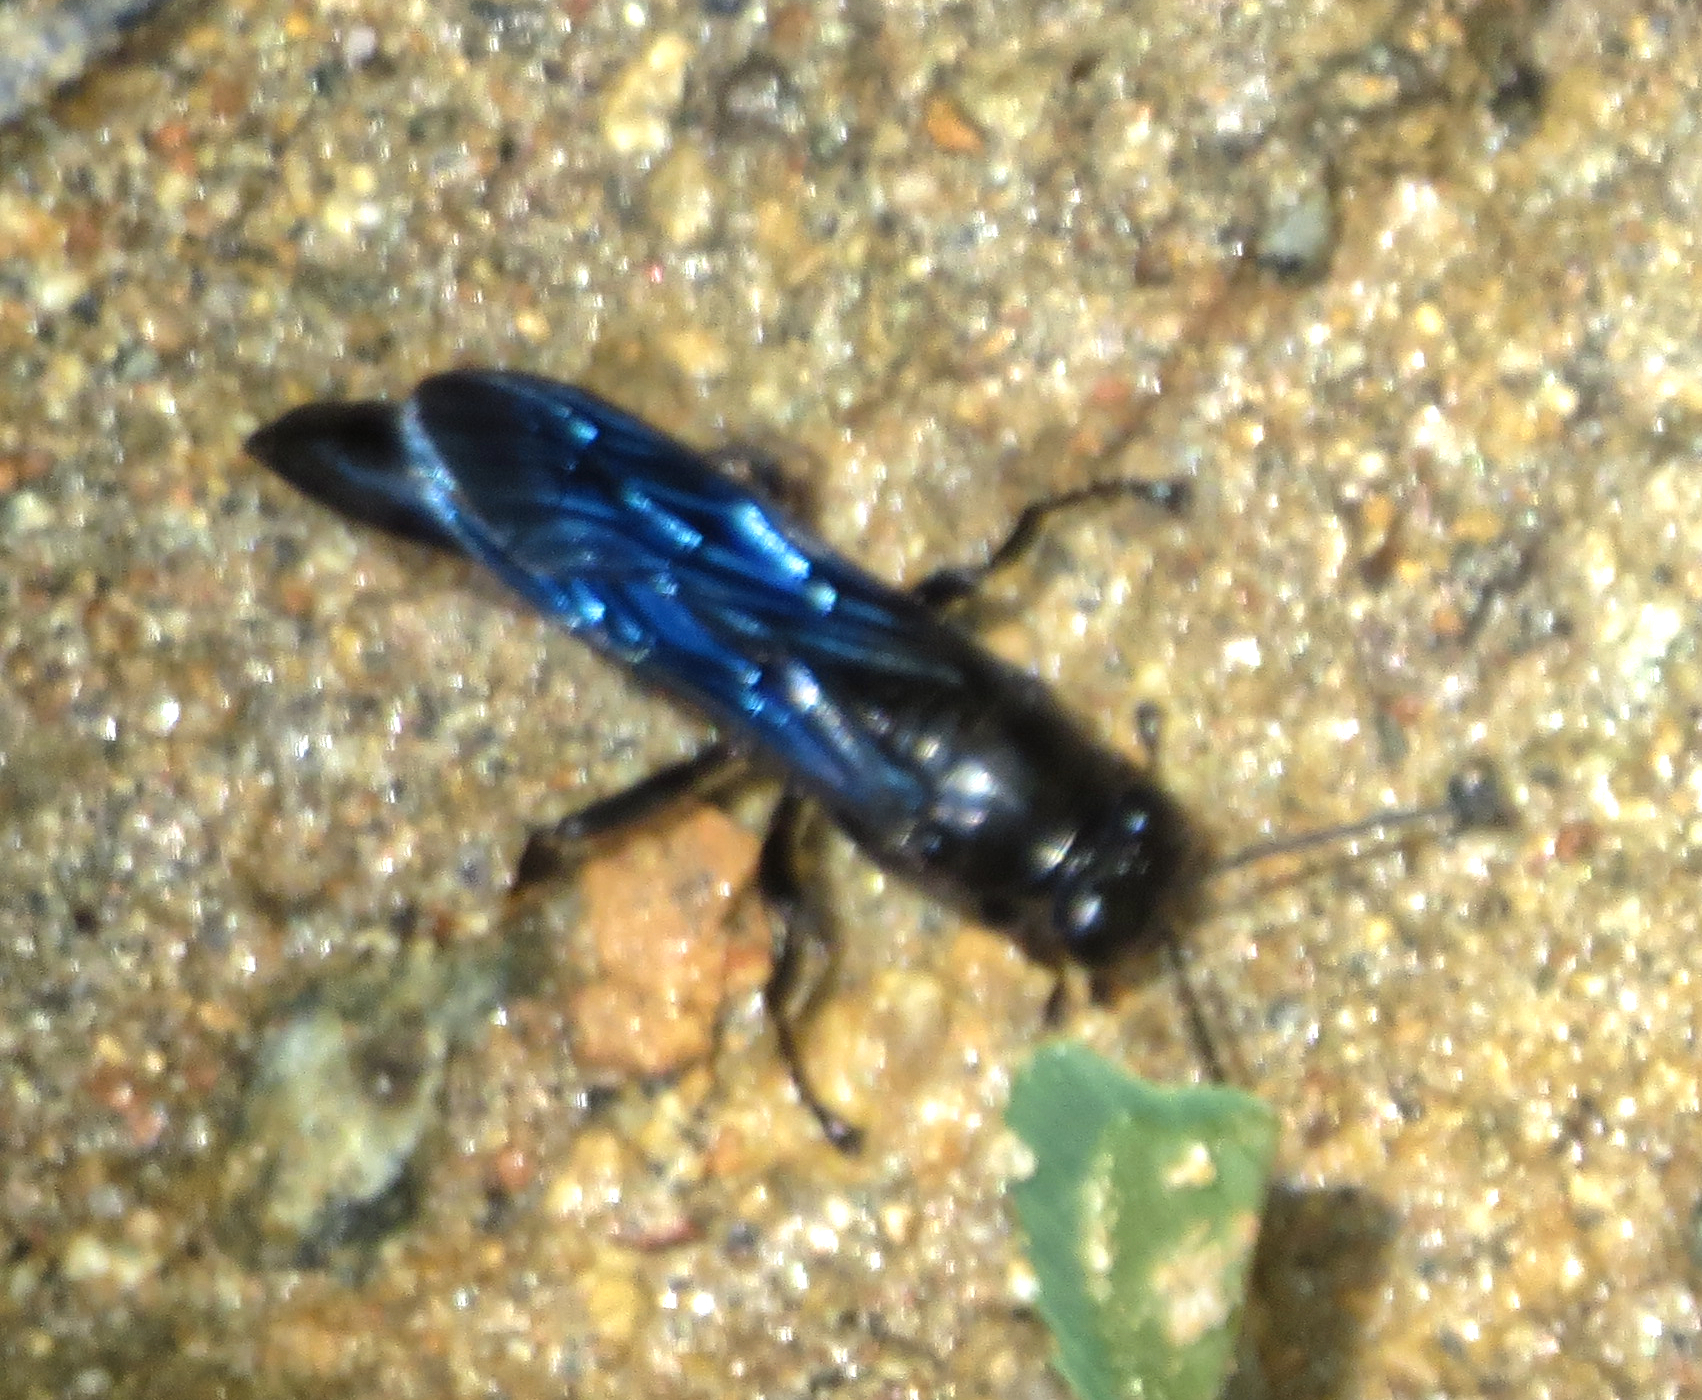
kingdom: Animalia
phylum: Arthropoda
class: Insecta
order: Hymenoptera
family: Crabronidae
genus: Trypoxylon
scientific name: Trypoxylon politum
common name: Organ-pipe mud-dauber wasp
